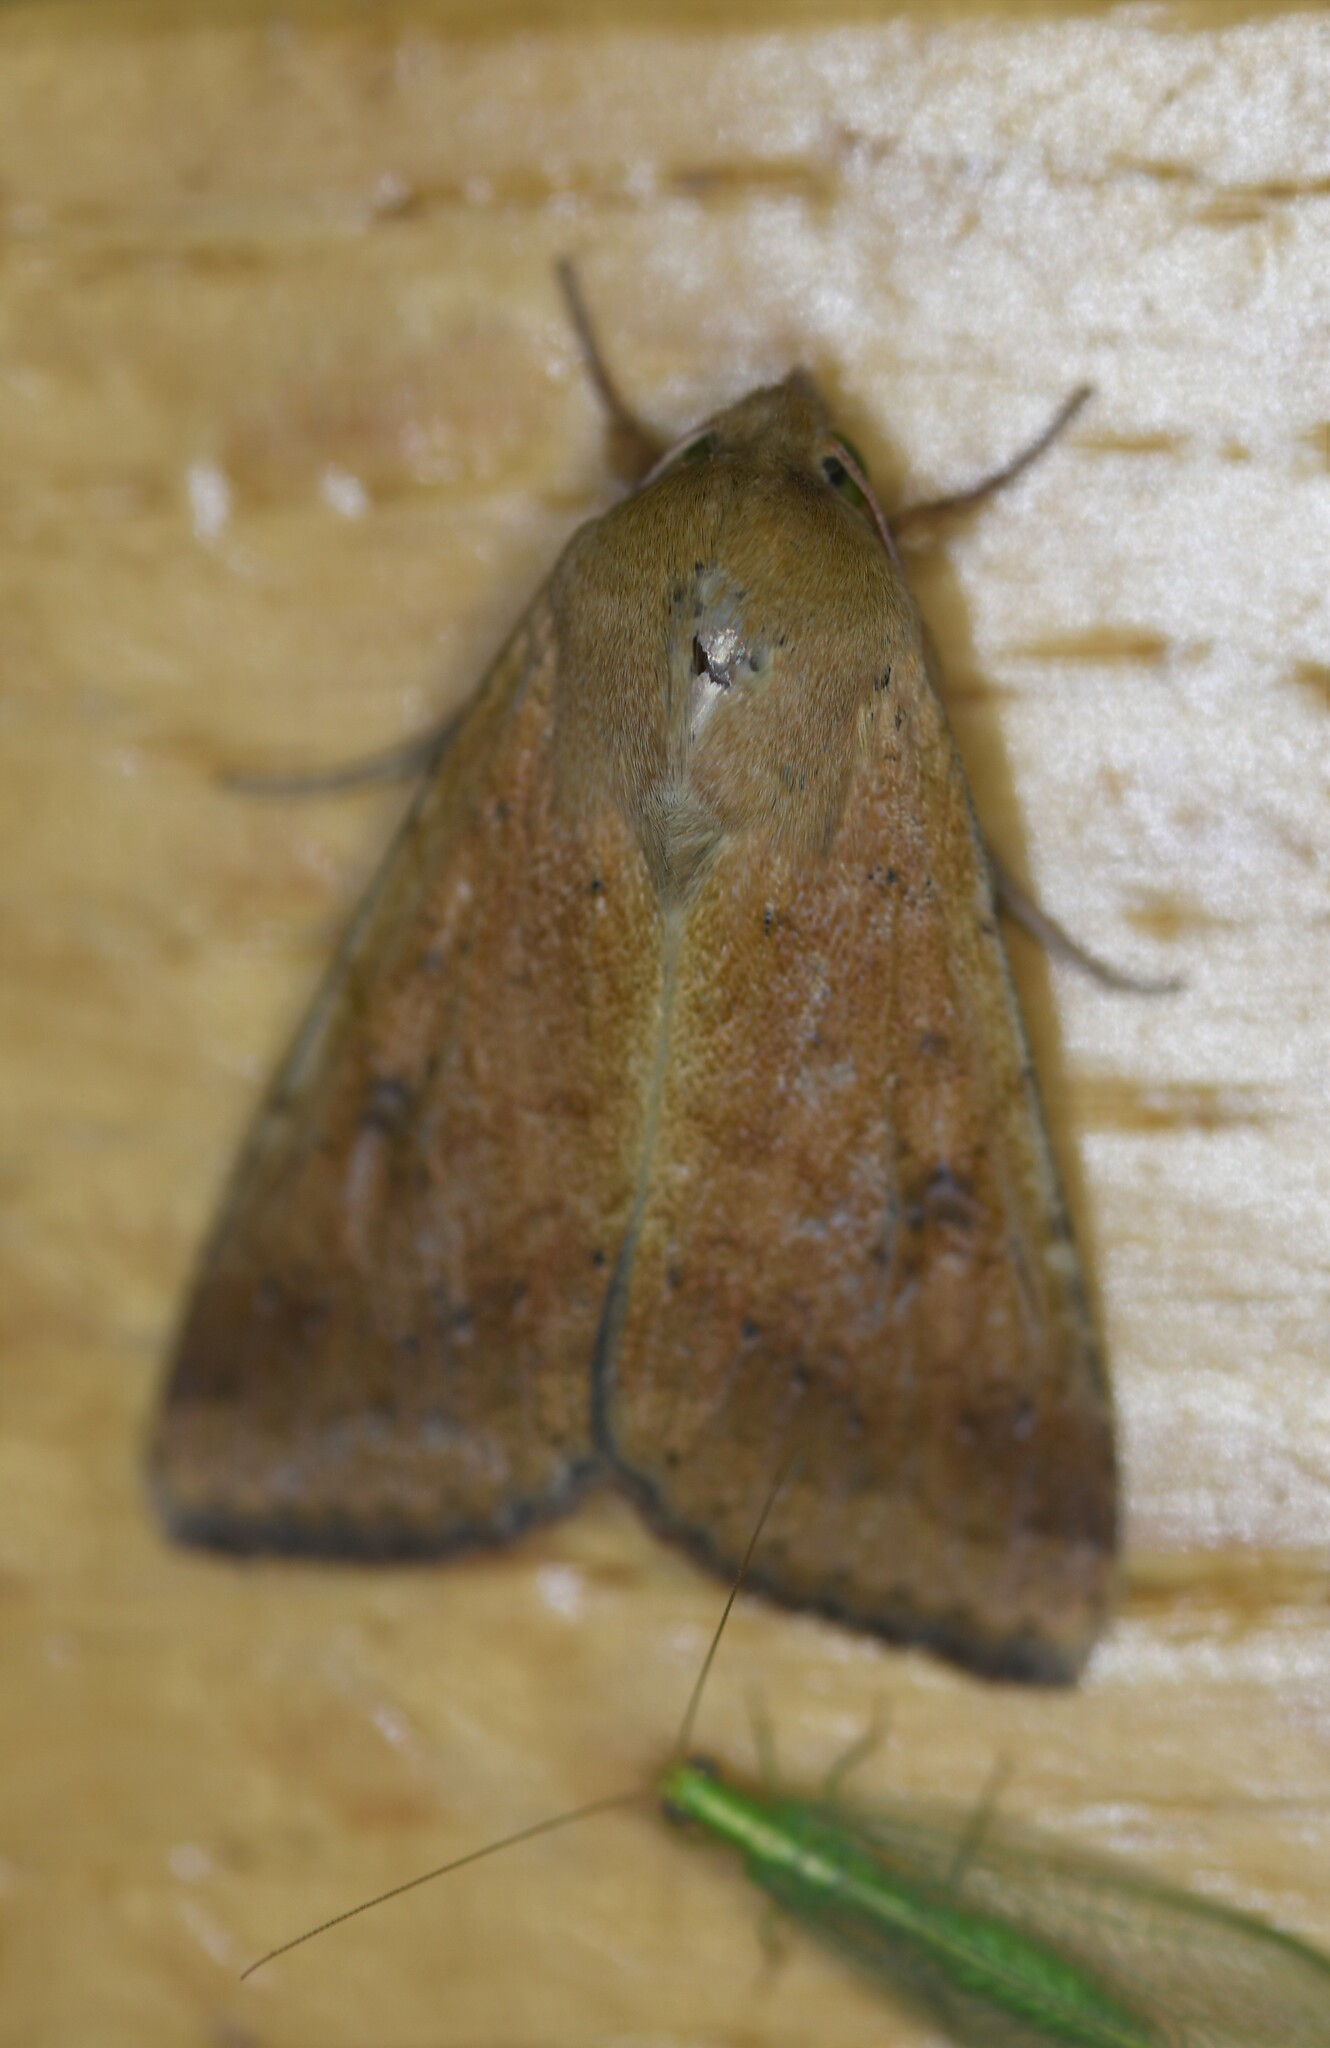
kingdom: Animalia
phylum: Arthropoda
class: Insecta
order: Lepidoptera
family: Noctuidae
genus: Helicoverpa
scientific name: Helicoverpa armigera
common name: Cotton bollworm
